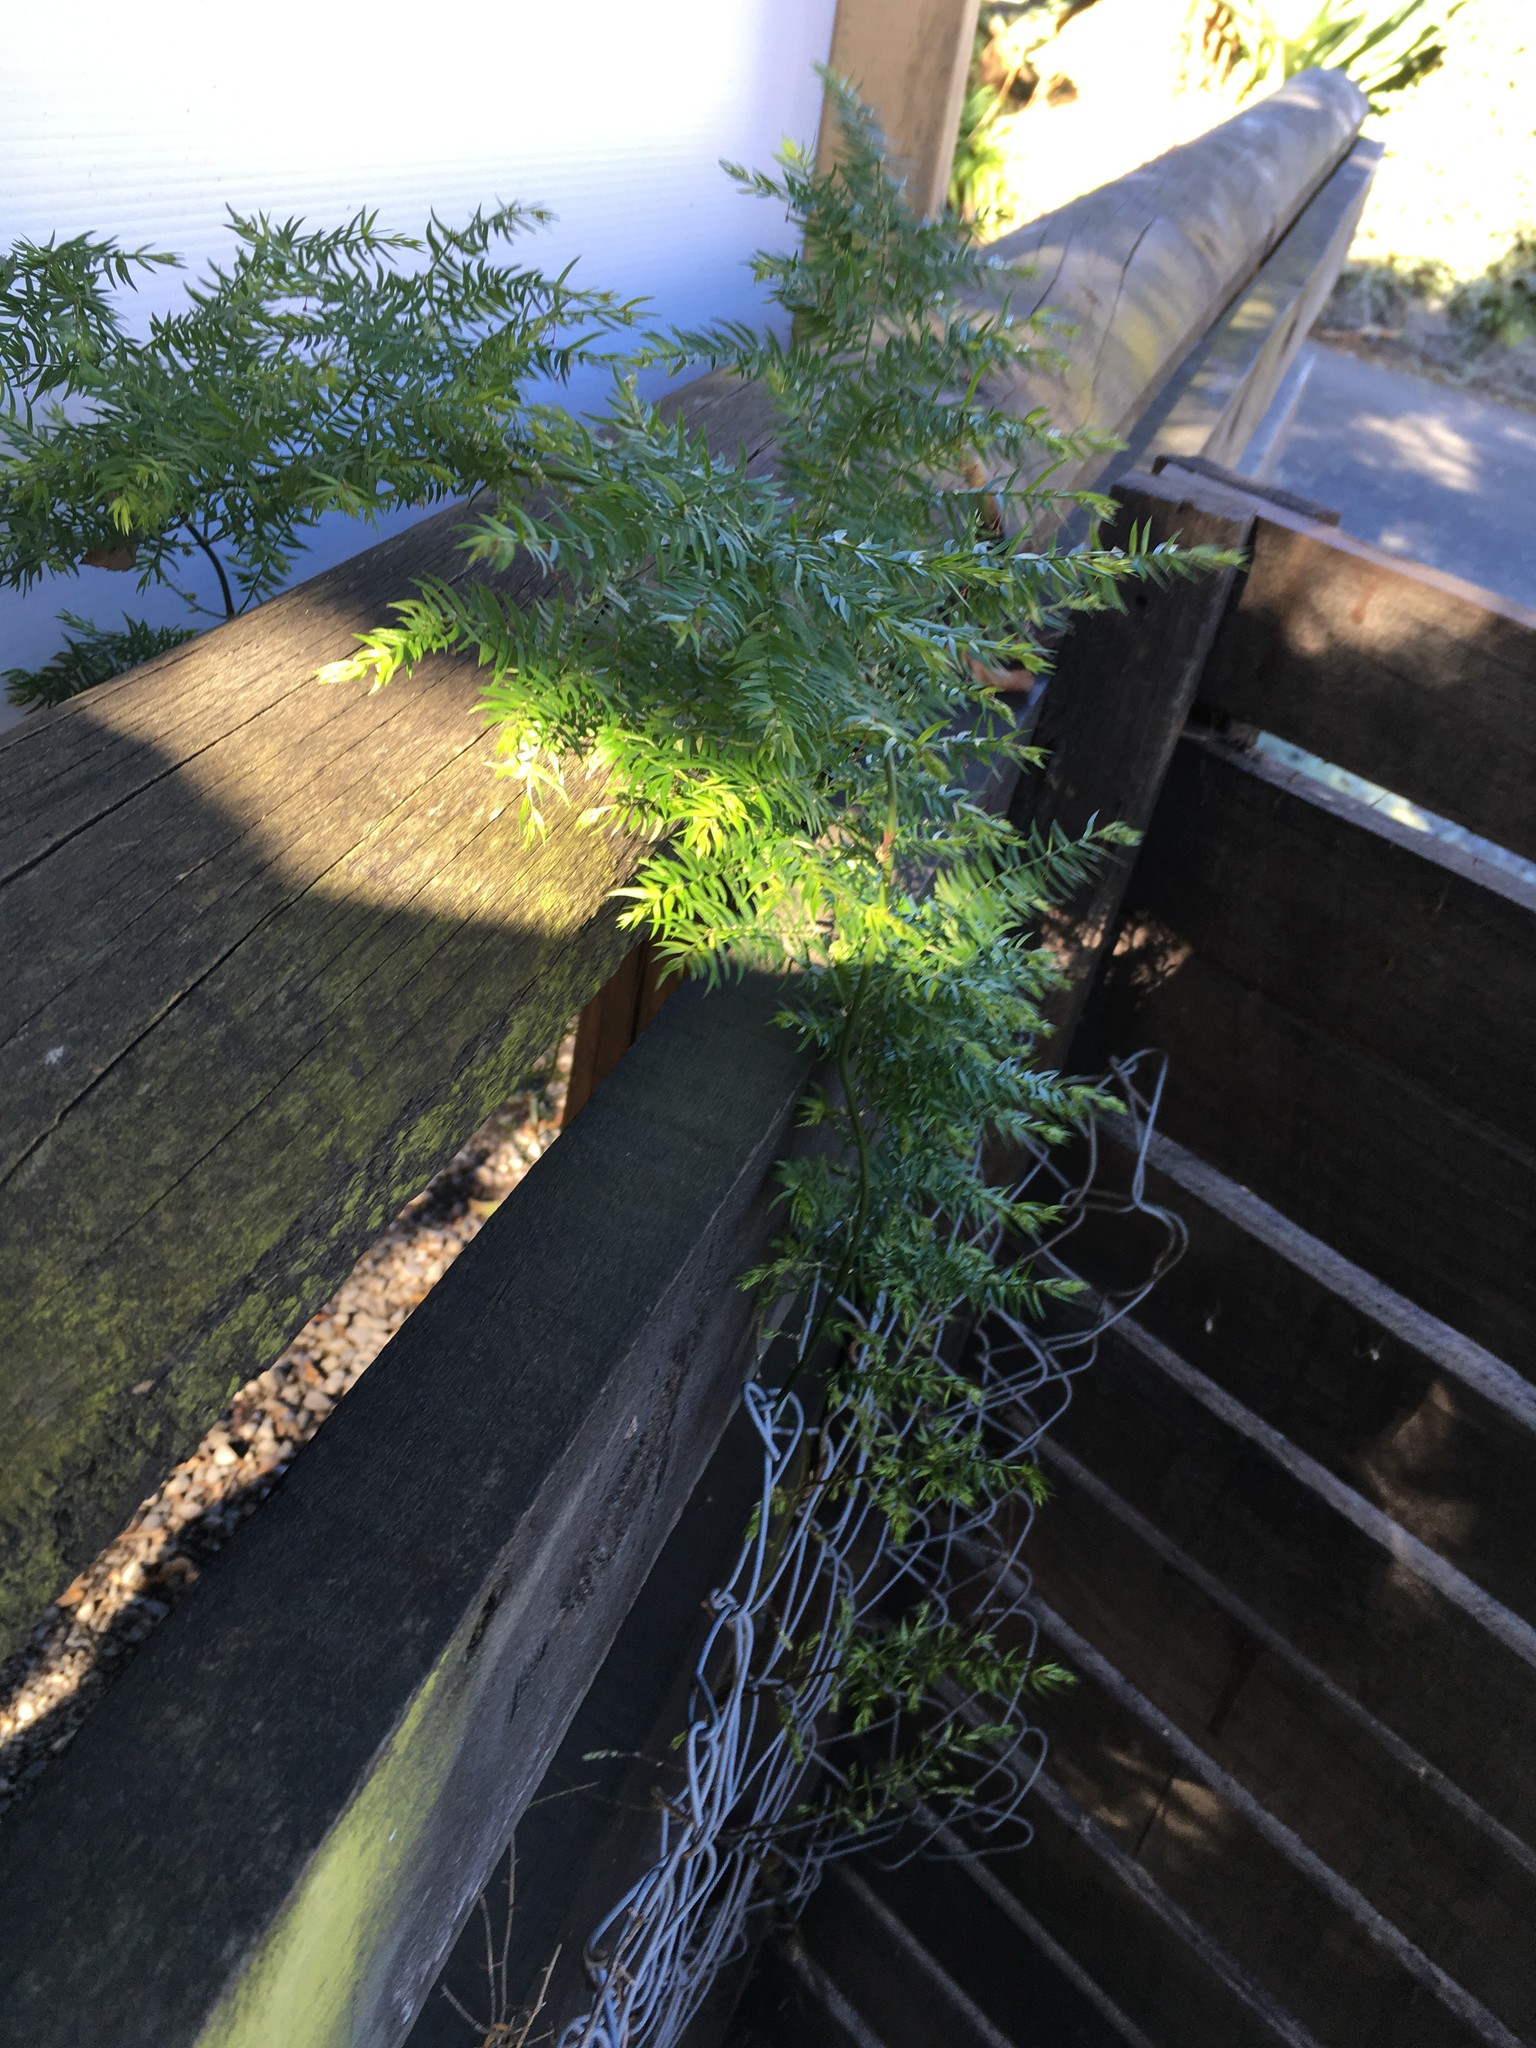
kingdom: Plantae
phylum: Tracheophyta
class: Liliopsida
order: Asparagales
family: Asparagaceae
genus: Asparagus
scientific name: Asparagus scandens
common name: Asparagus-fern
